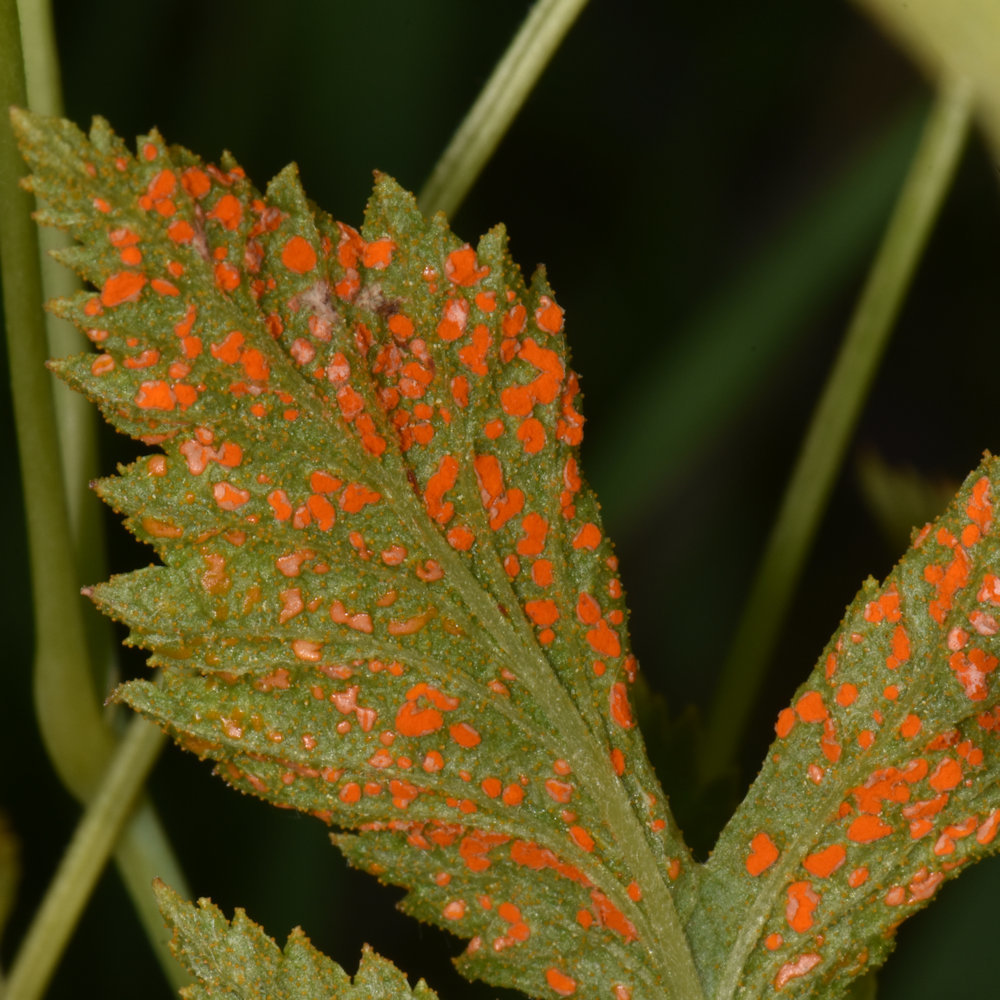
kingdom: Fungi
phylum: Basidiomycota
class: Pucciniomycetes
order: Pucciniales
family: Phragmidiaceae
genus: Arthuriomyces
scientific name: Arthuriomyces peckianus
